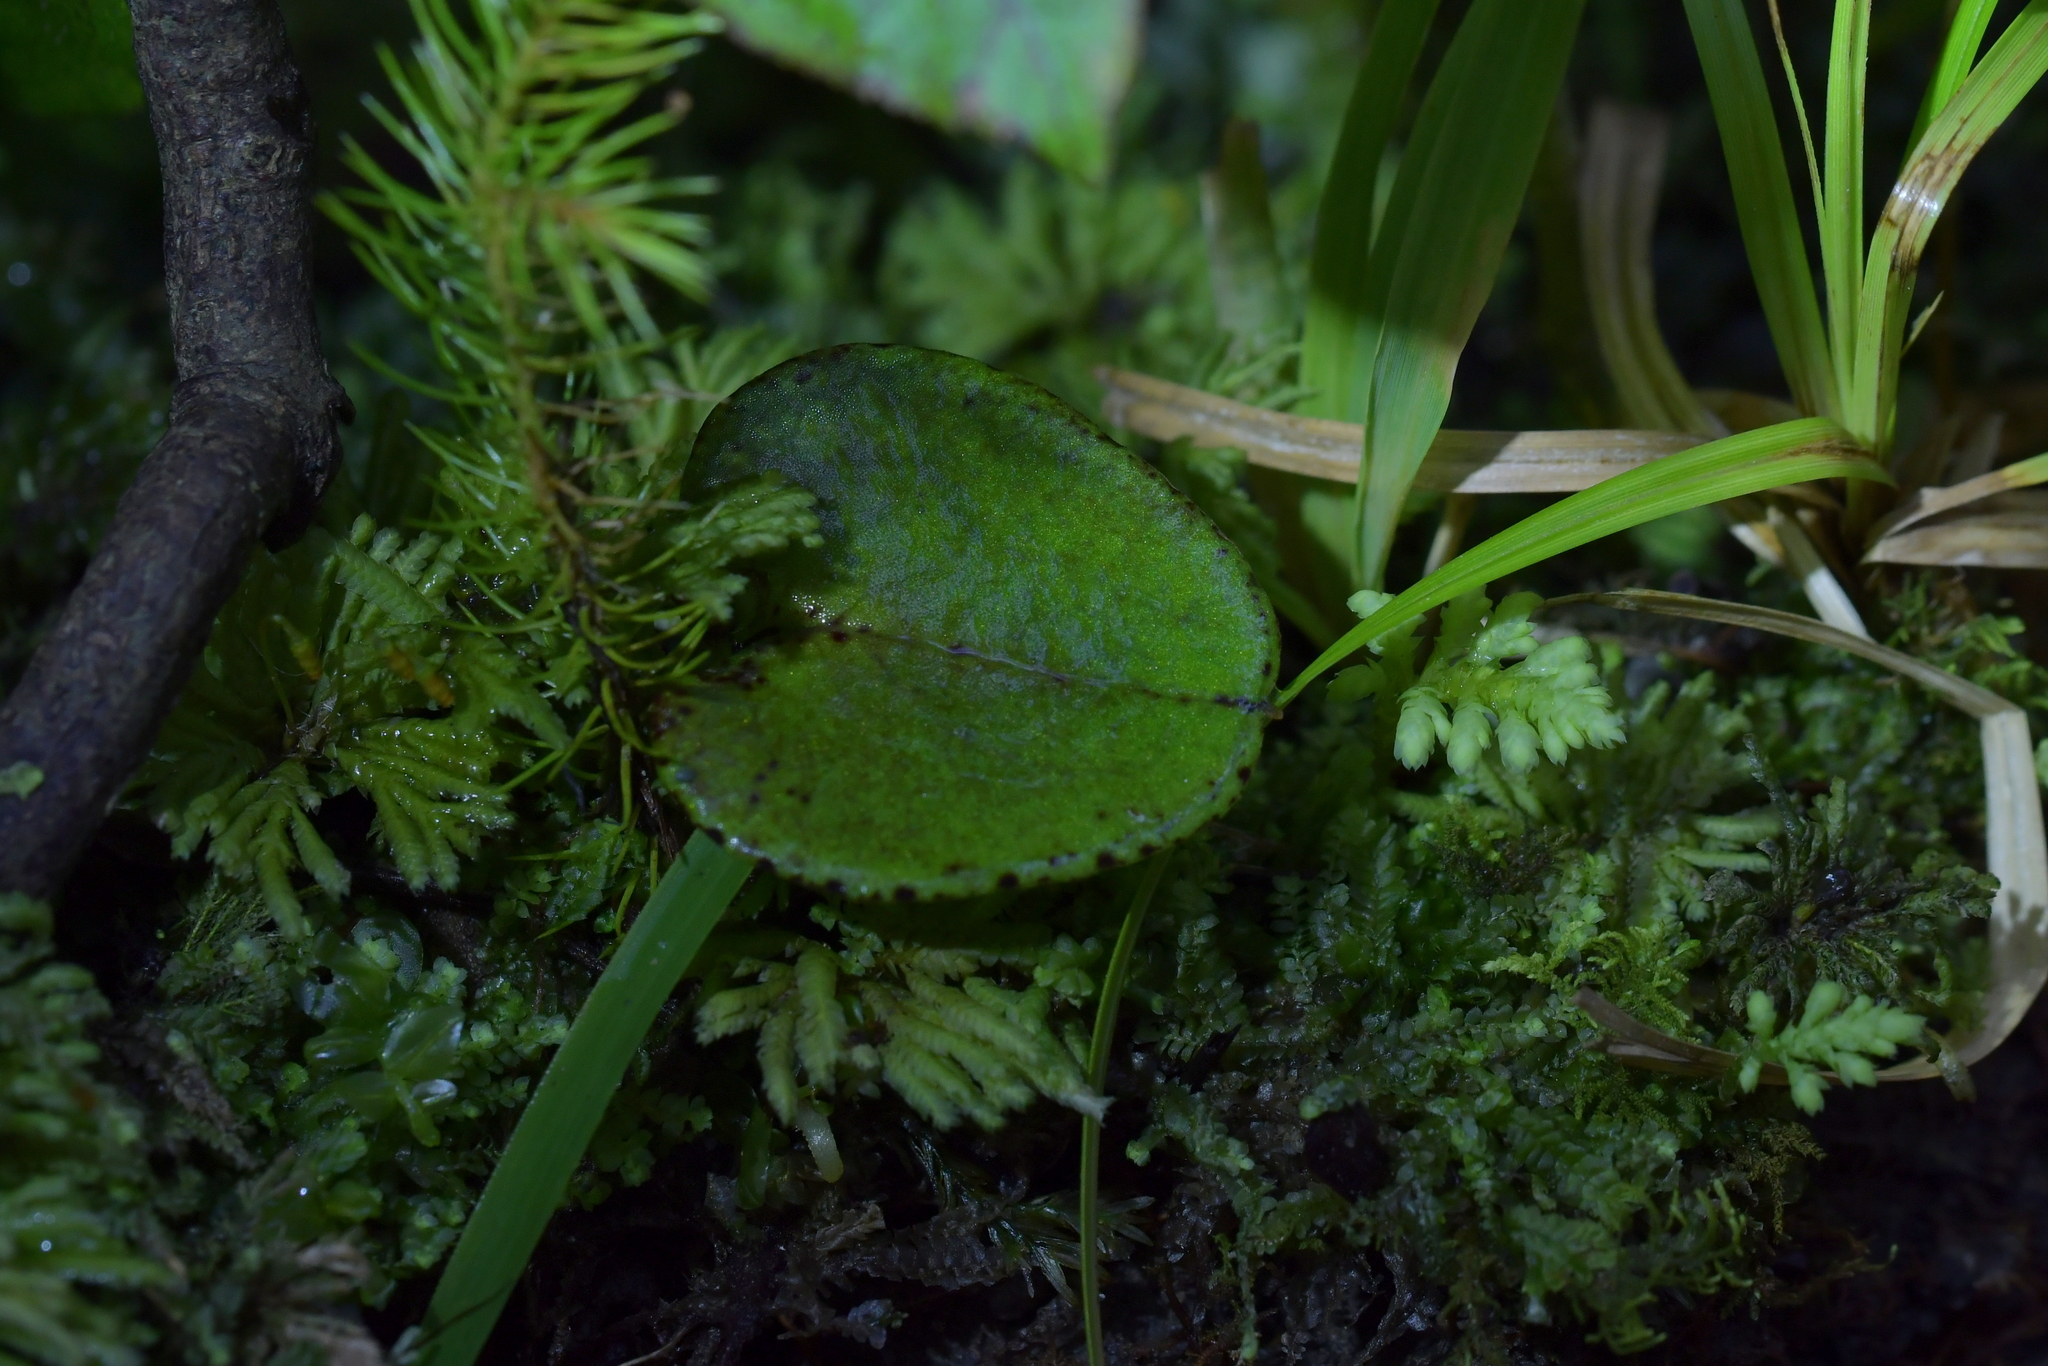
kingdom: Plantae
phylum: Tracheophyta
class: Liliopsida
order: Asparagales
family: Orchidaceae
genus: Corybas
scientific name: Corybas hatchii
